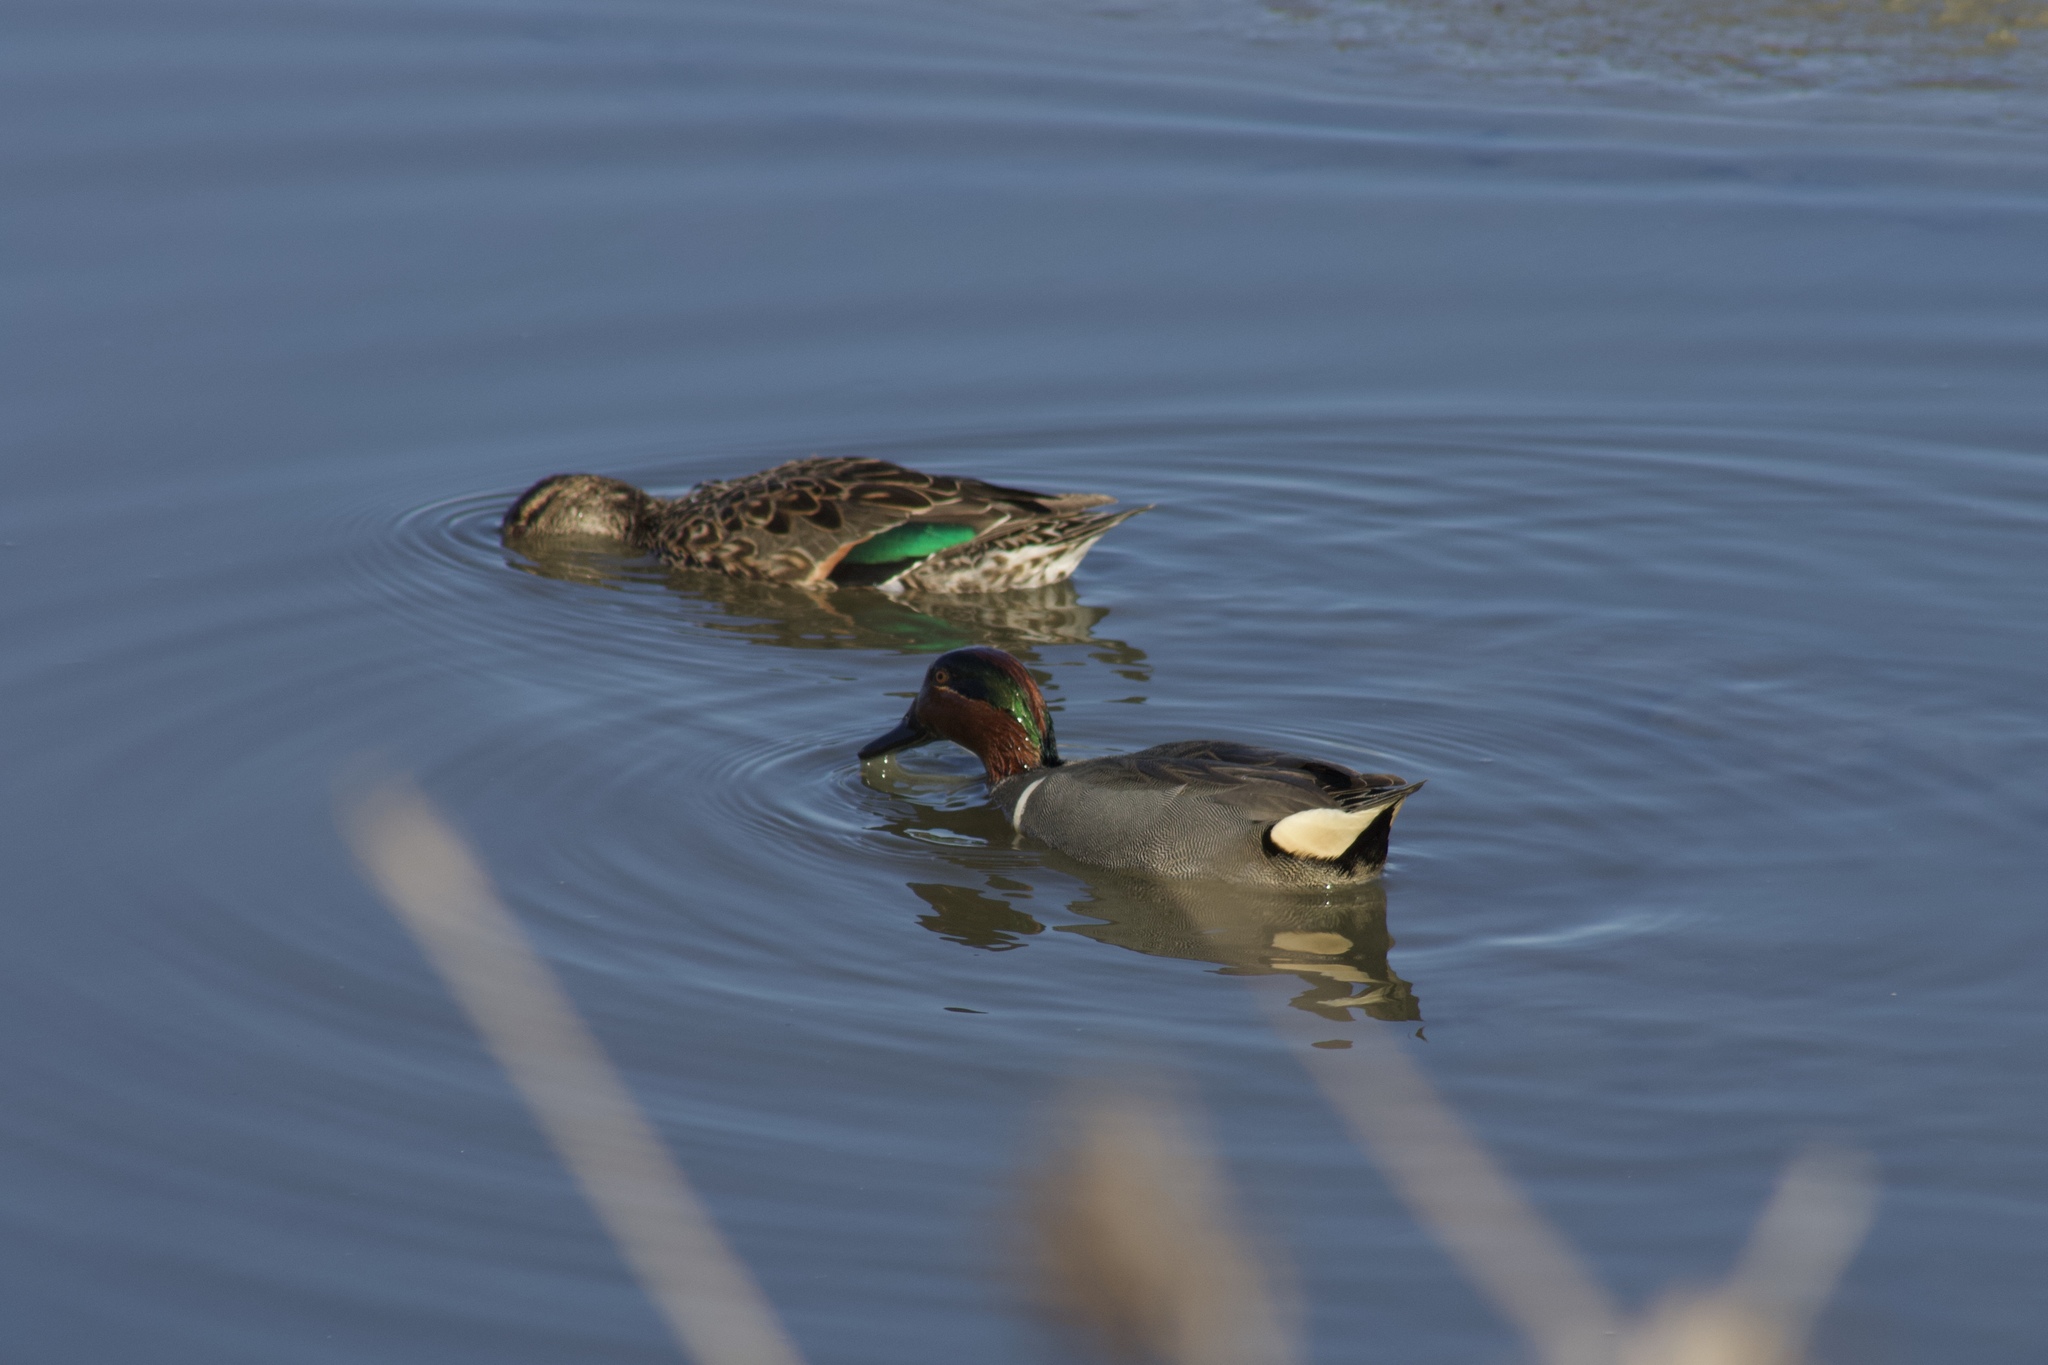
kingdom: Animalia
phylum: Chordata
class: Aves
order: Anseriformes
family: Anatidae
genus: Anas
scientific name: Anas crecca
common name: Eurasian teal
